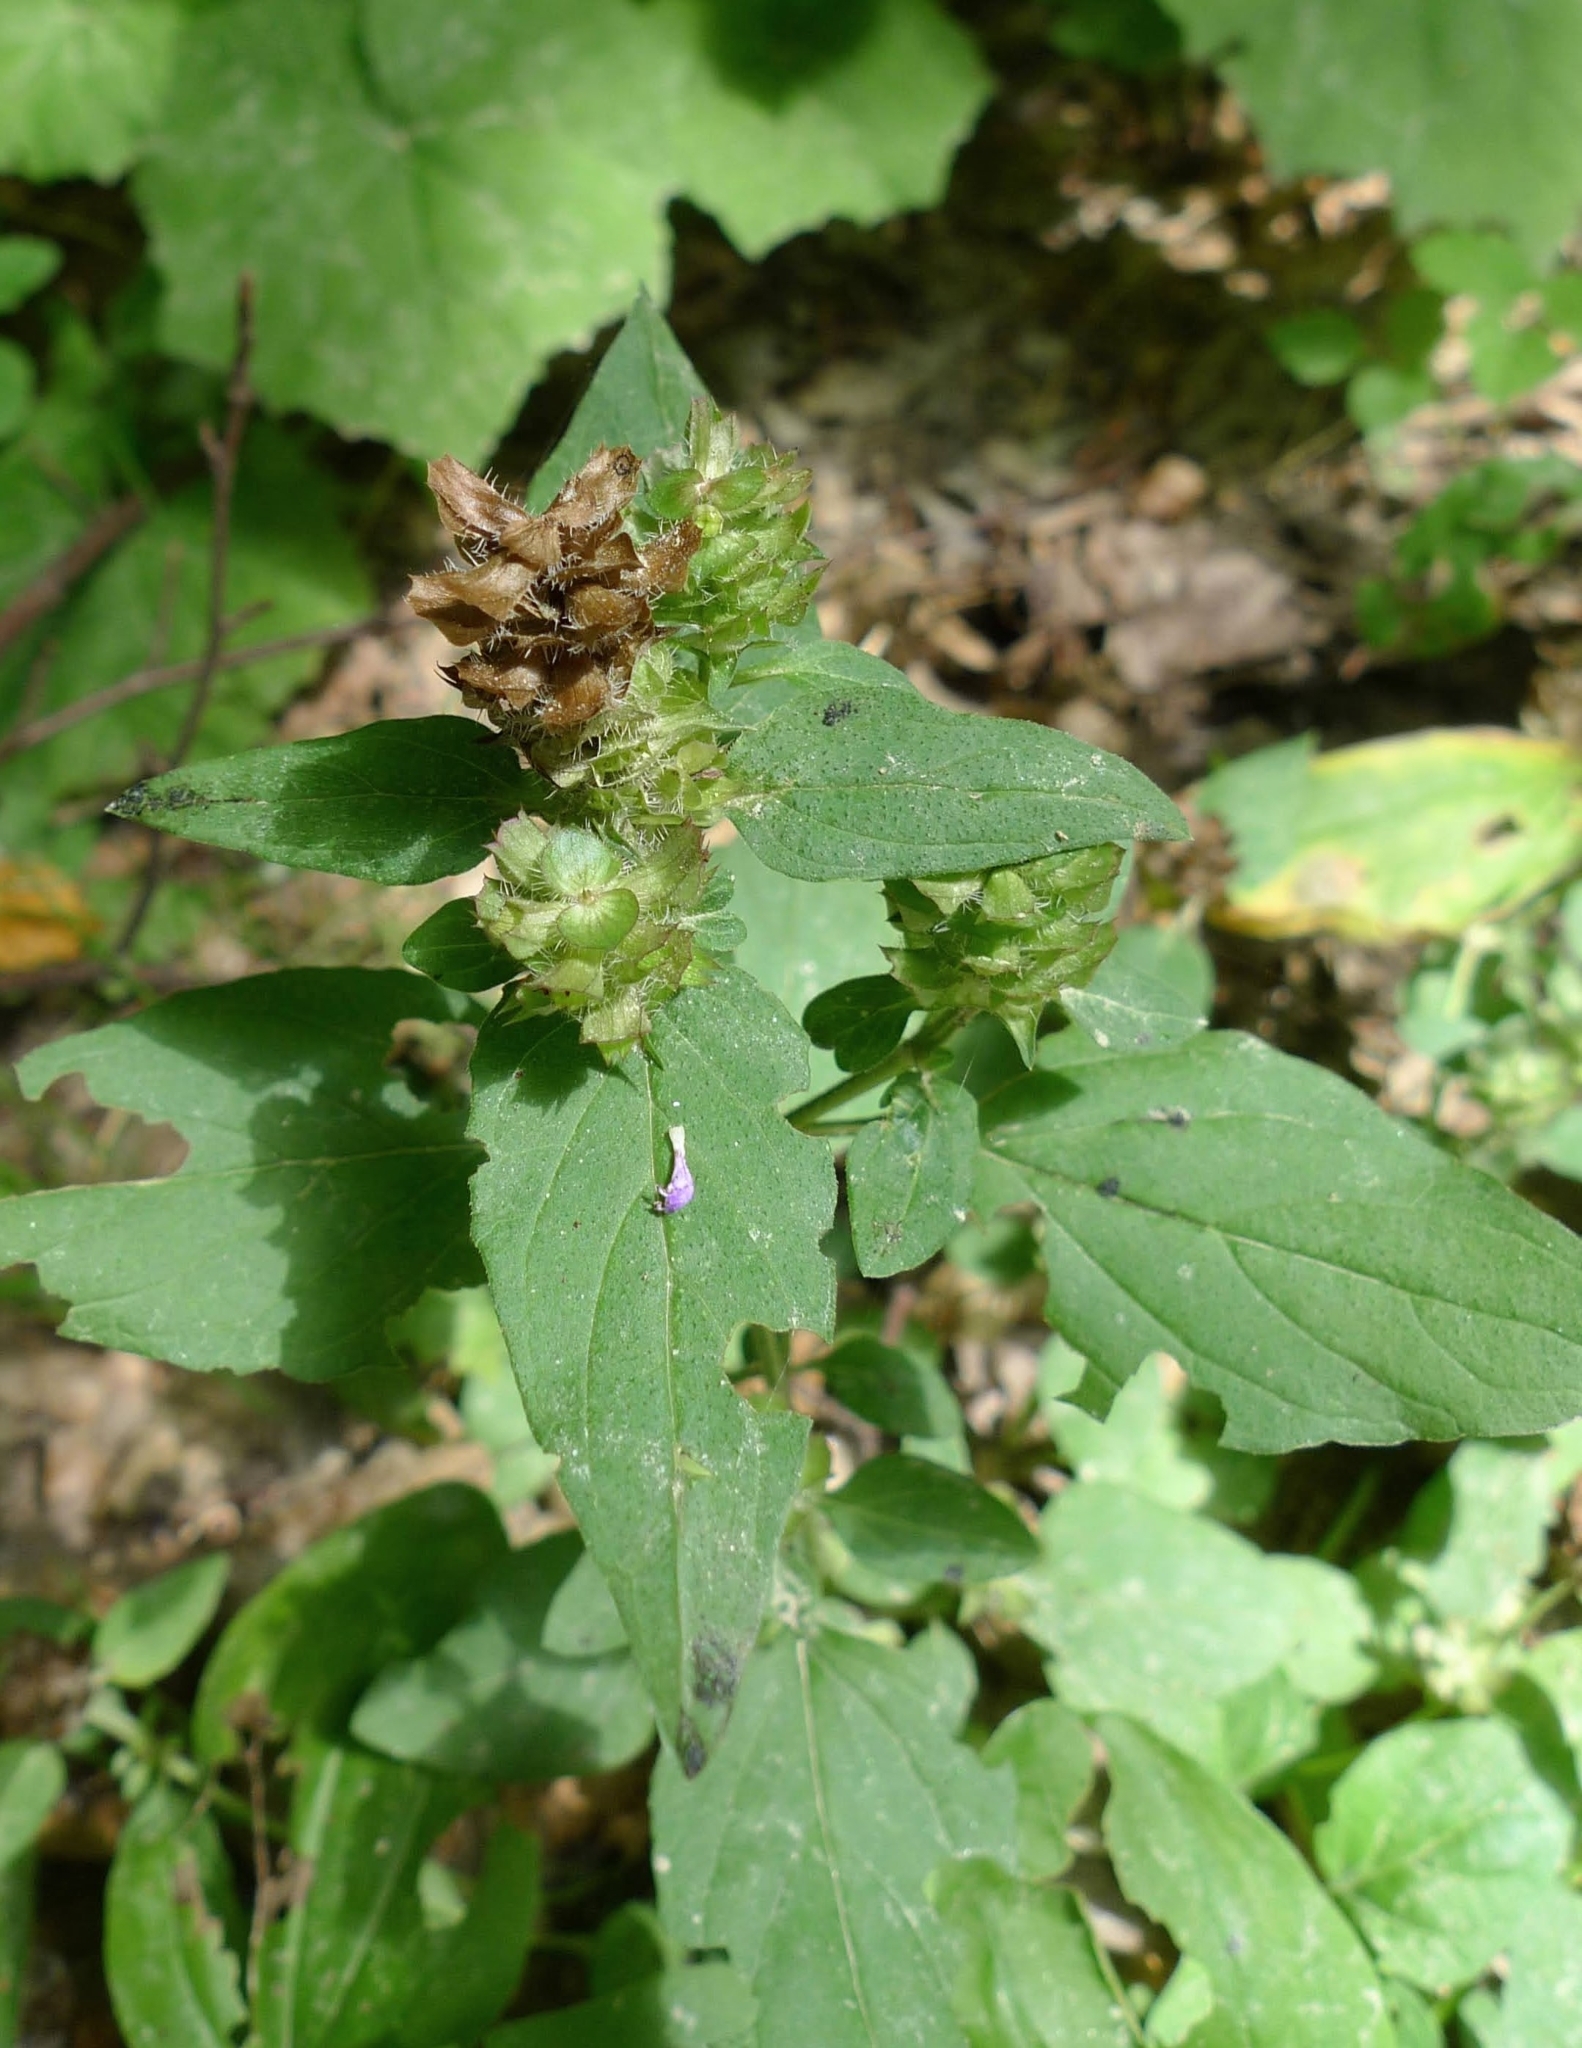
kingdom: Plantae
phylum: Tracheophyta
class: Magnoliopsida
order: Lamiales
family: Lamiaceae
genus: Prunella
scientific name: Prunella vulgaris
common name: Heal-all
